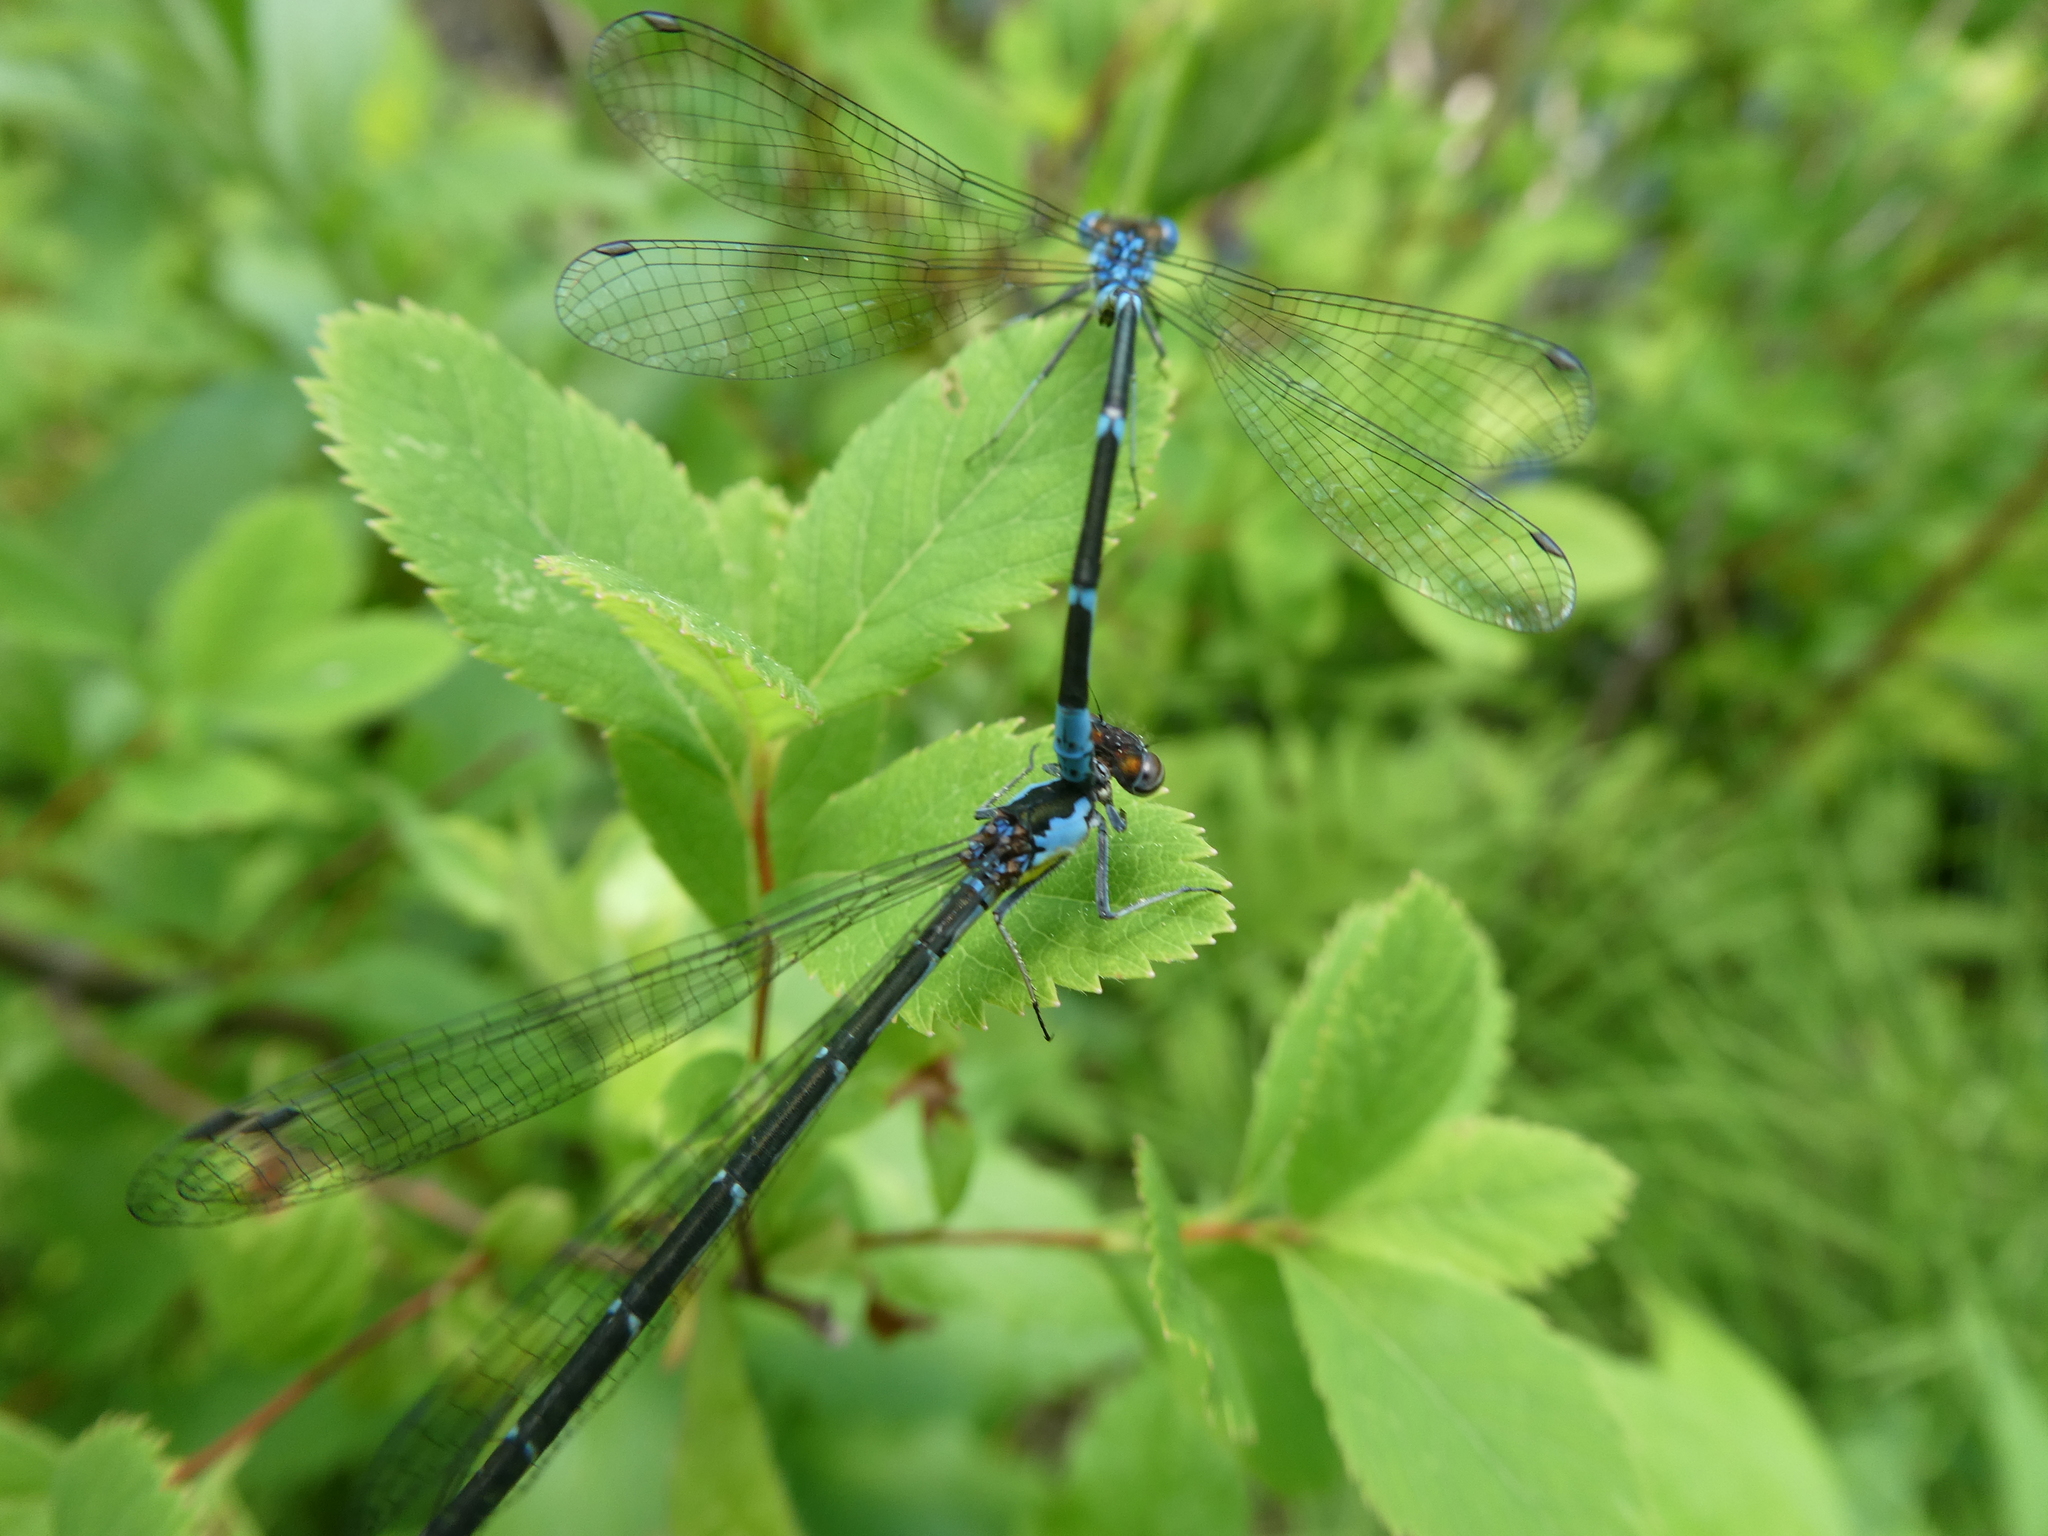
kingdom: Animalia
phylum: Arthropoda
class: Insecta
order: Odonata
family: Coenagrionidae
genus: Chromagrion
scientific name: Chromagrion conditum
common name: Aurora damsel
